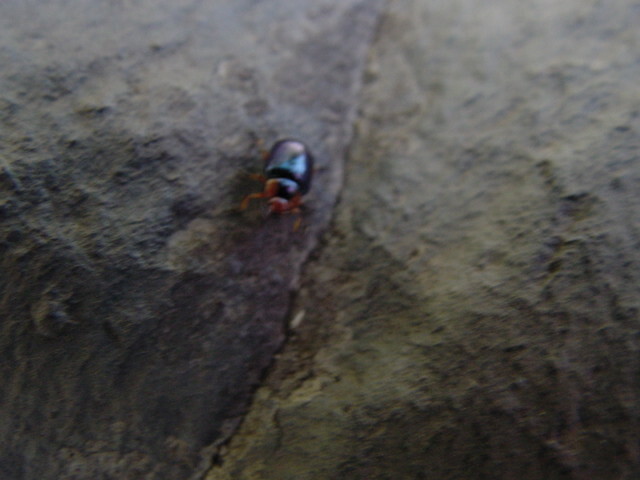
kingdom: Animalia
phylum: Arthropoda
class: Insecta
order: Coleoptera
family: Chrysomelidae
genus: Phaedon
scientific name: Phaedon
